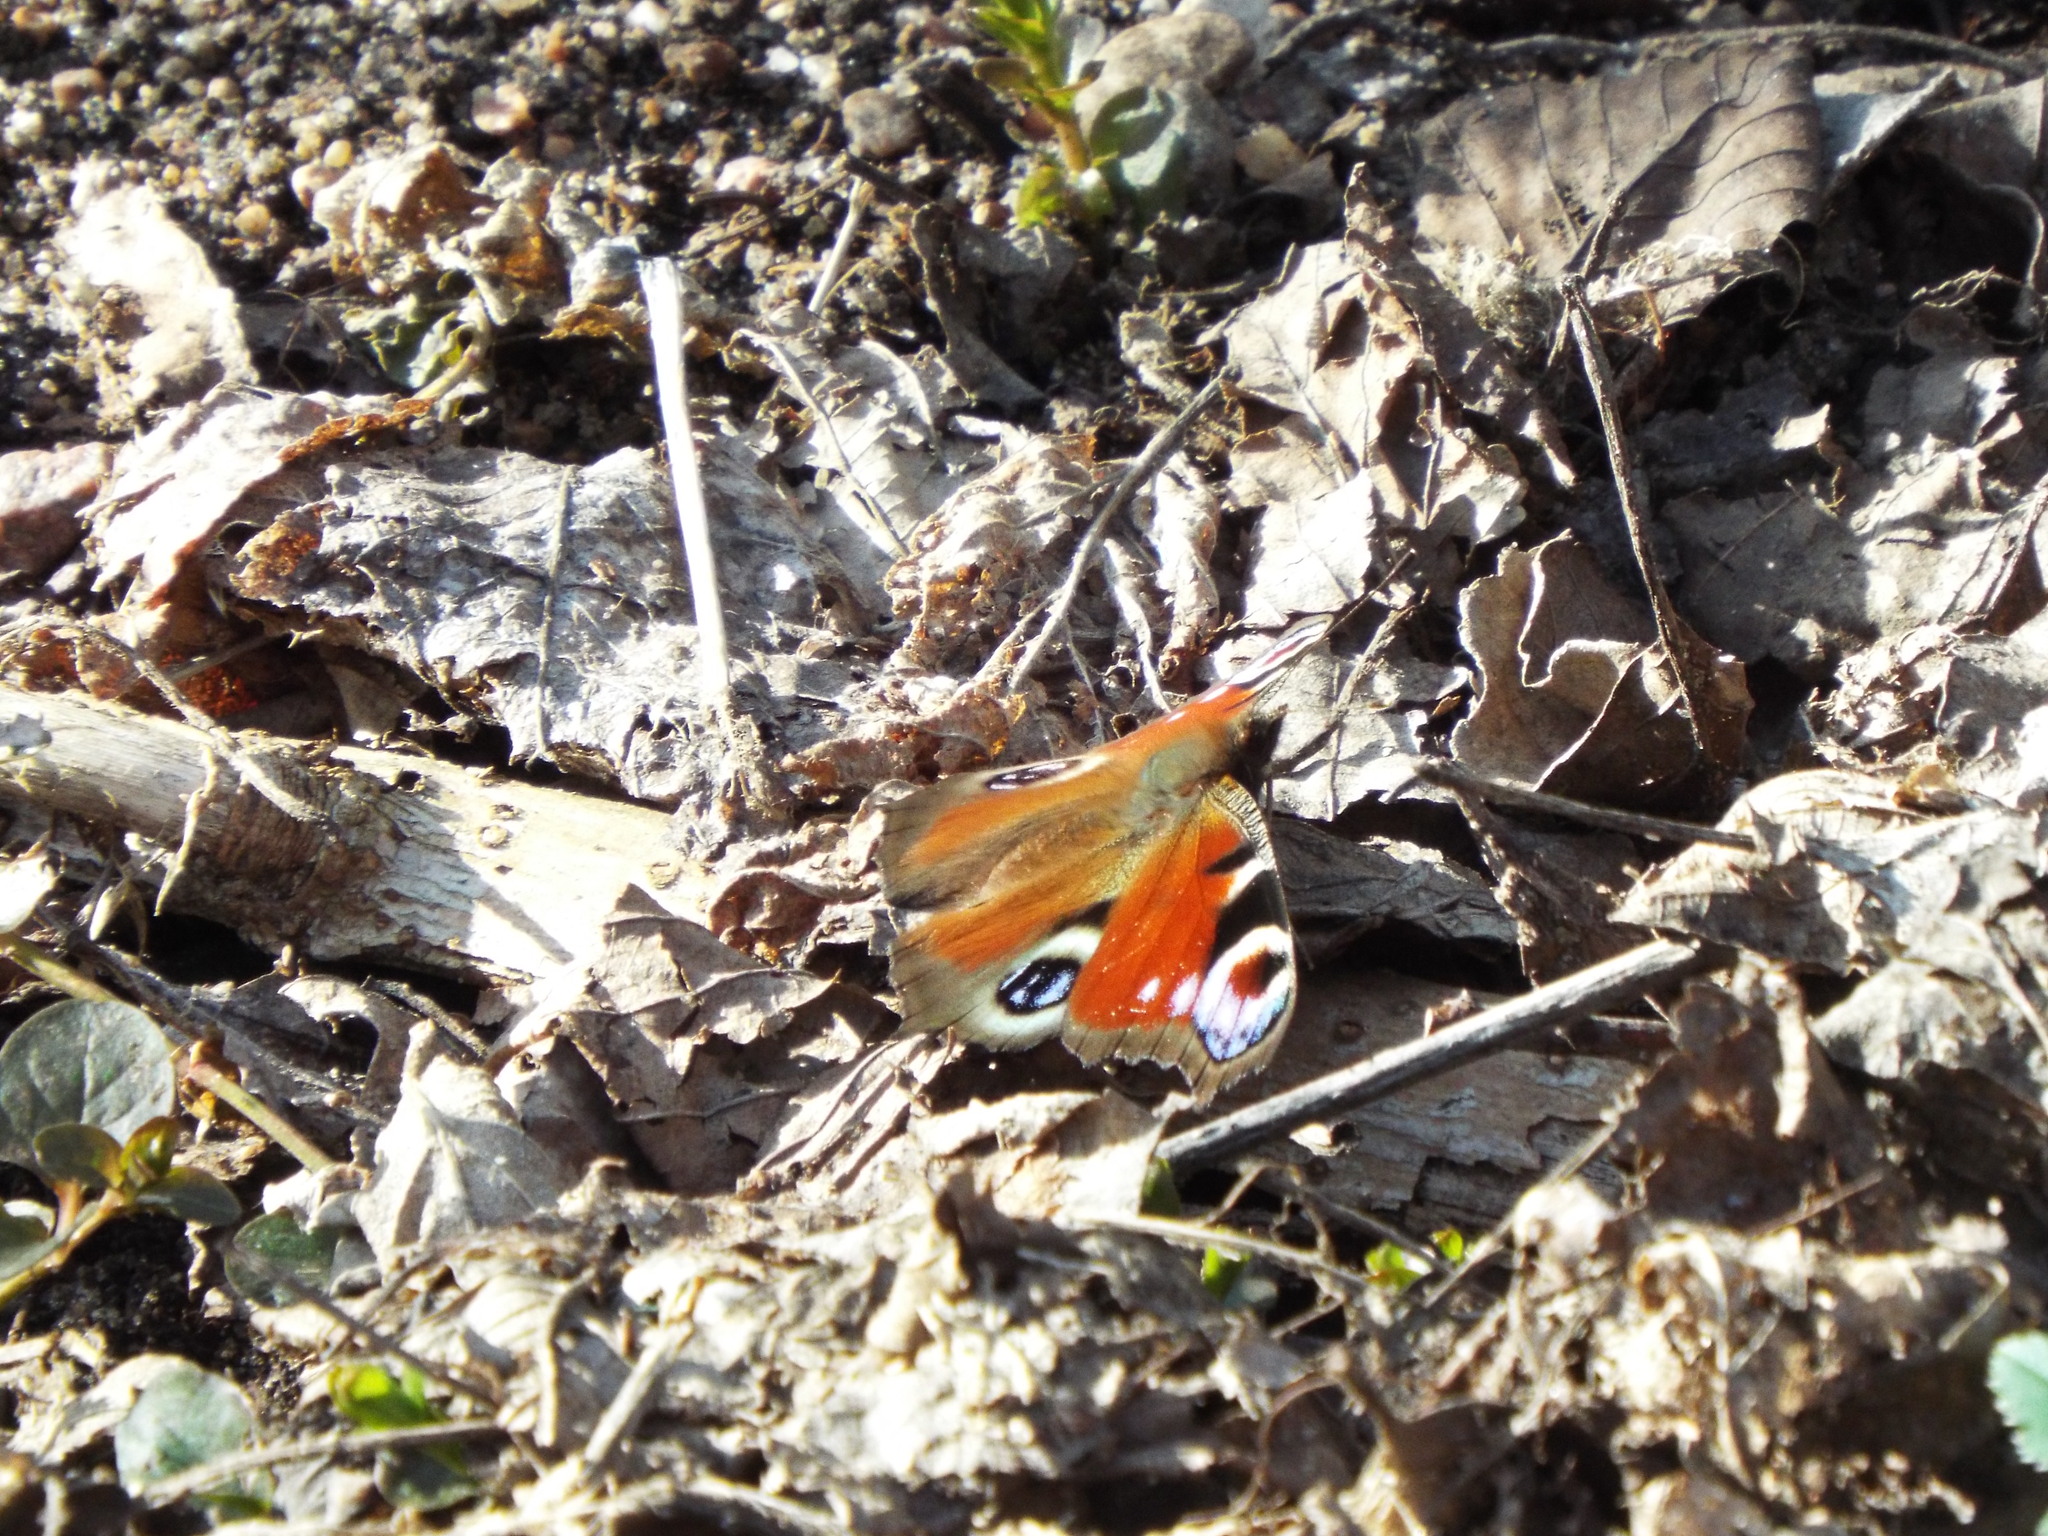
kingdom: Animalia
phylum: Arthropoda
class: Insecta
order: Lepidoptera
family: Nymphalidae
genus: Aglais
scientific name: Aglais io
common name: Peacock
